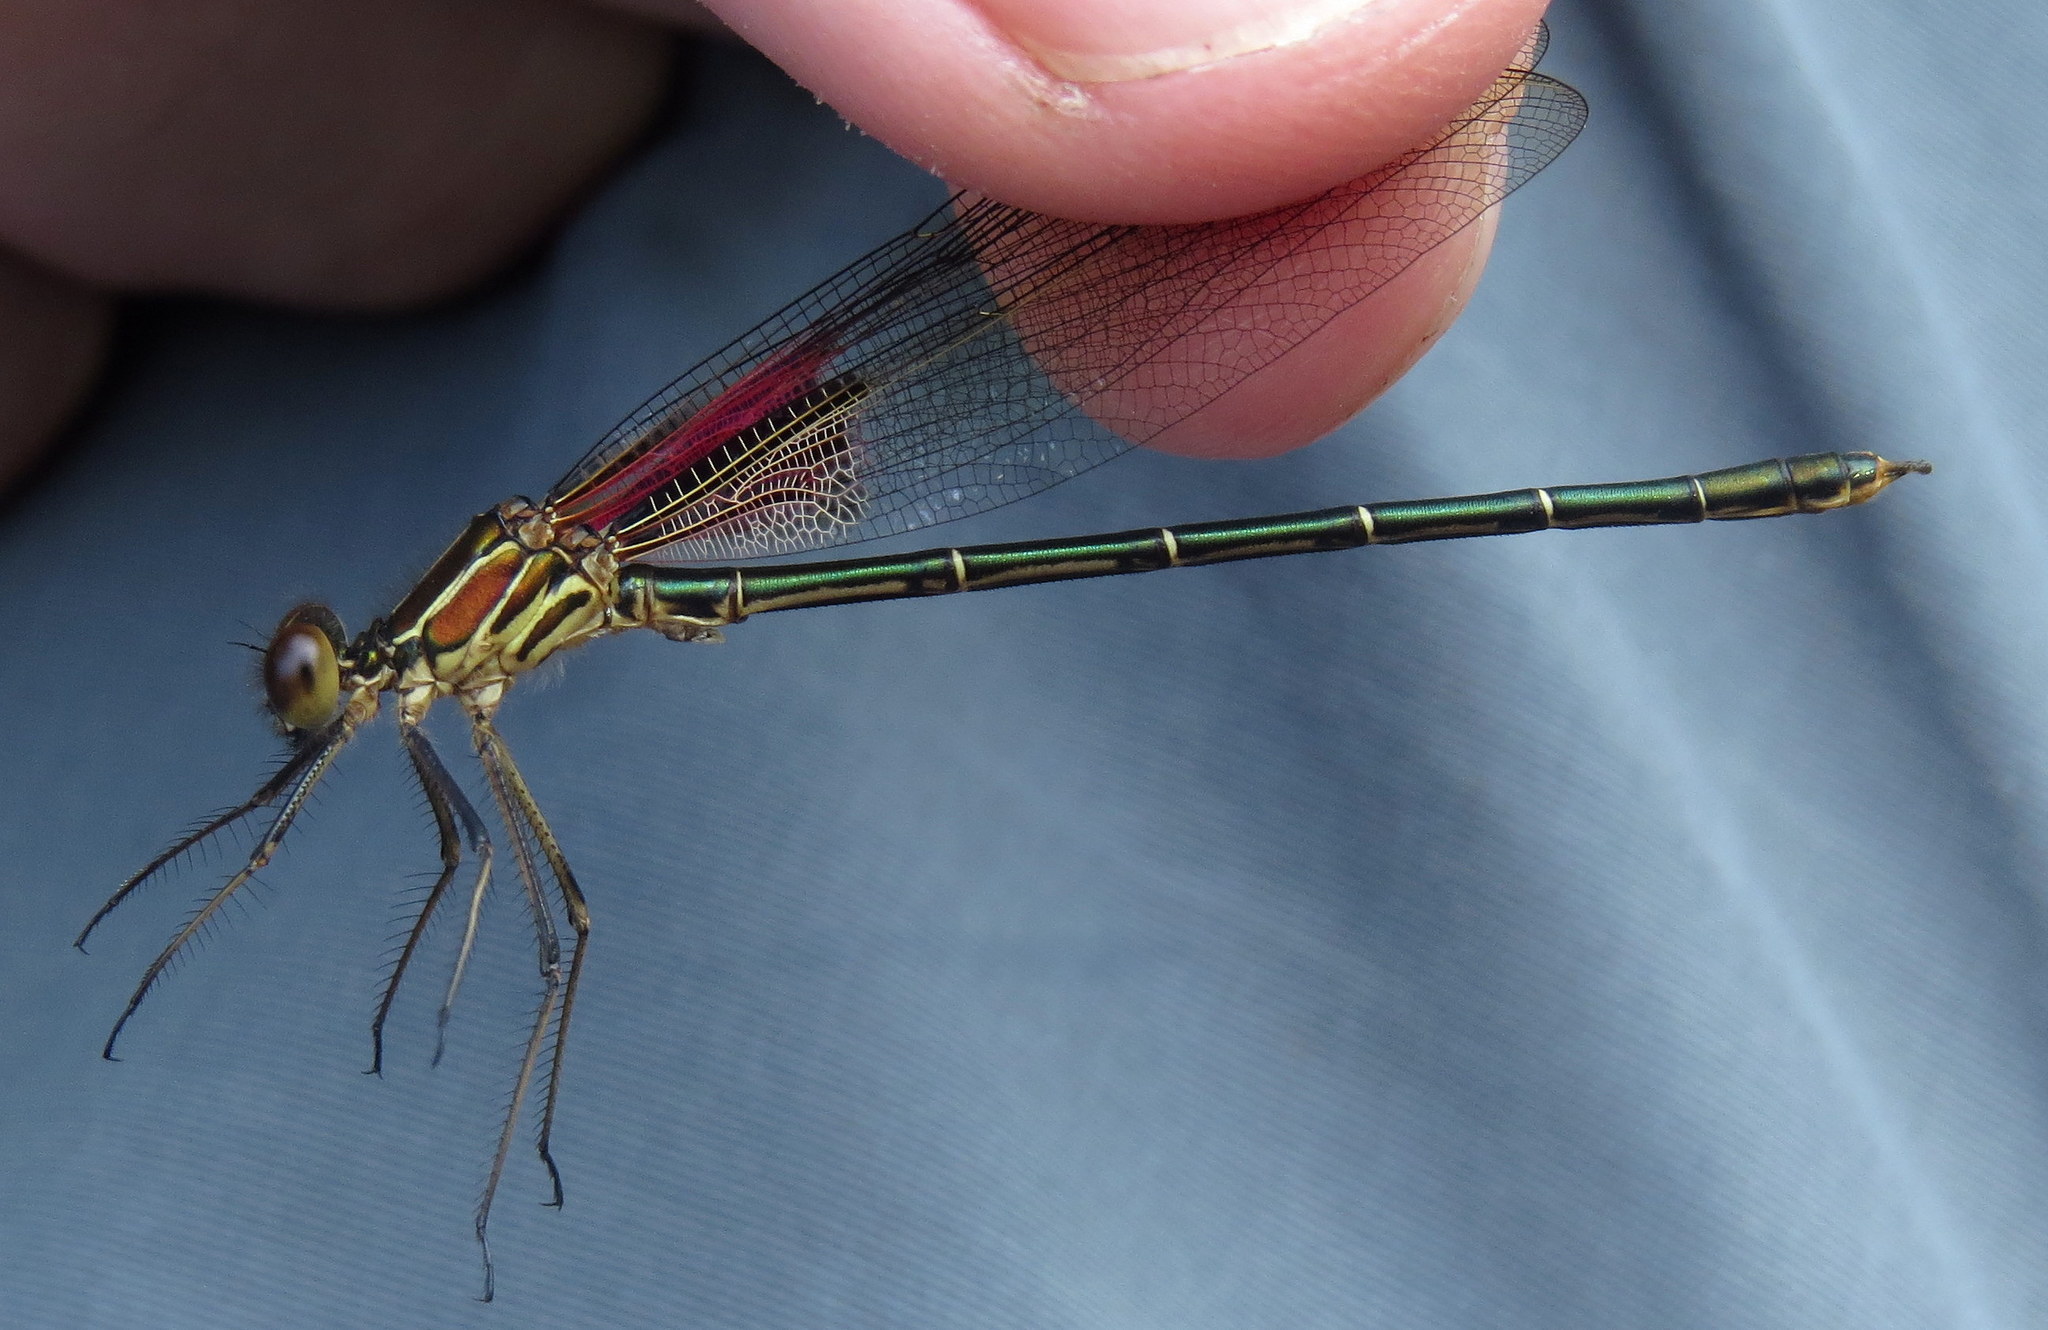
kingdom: Animalia
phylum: Arthropoda
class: Insecta
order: Odonata
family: Calopterygidae
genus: Hetaerina
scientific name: Hetaerina americana
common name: American rubyspot
